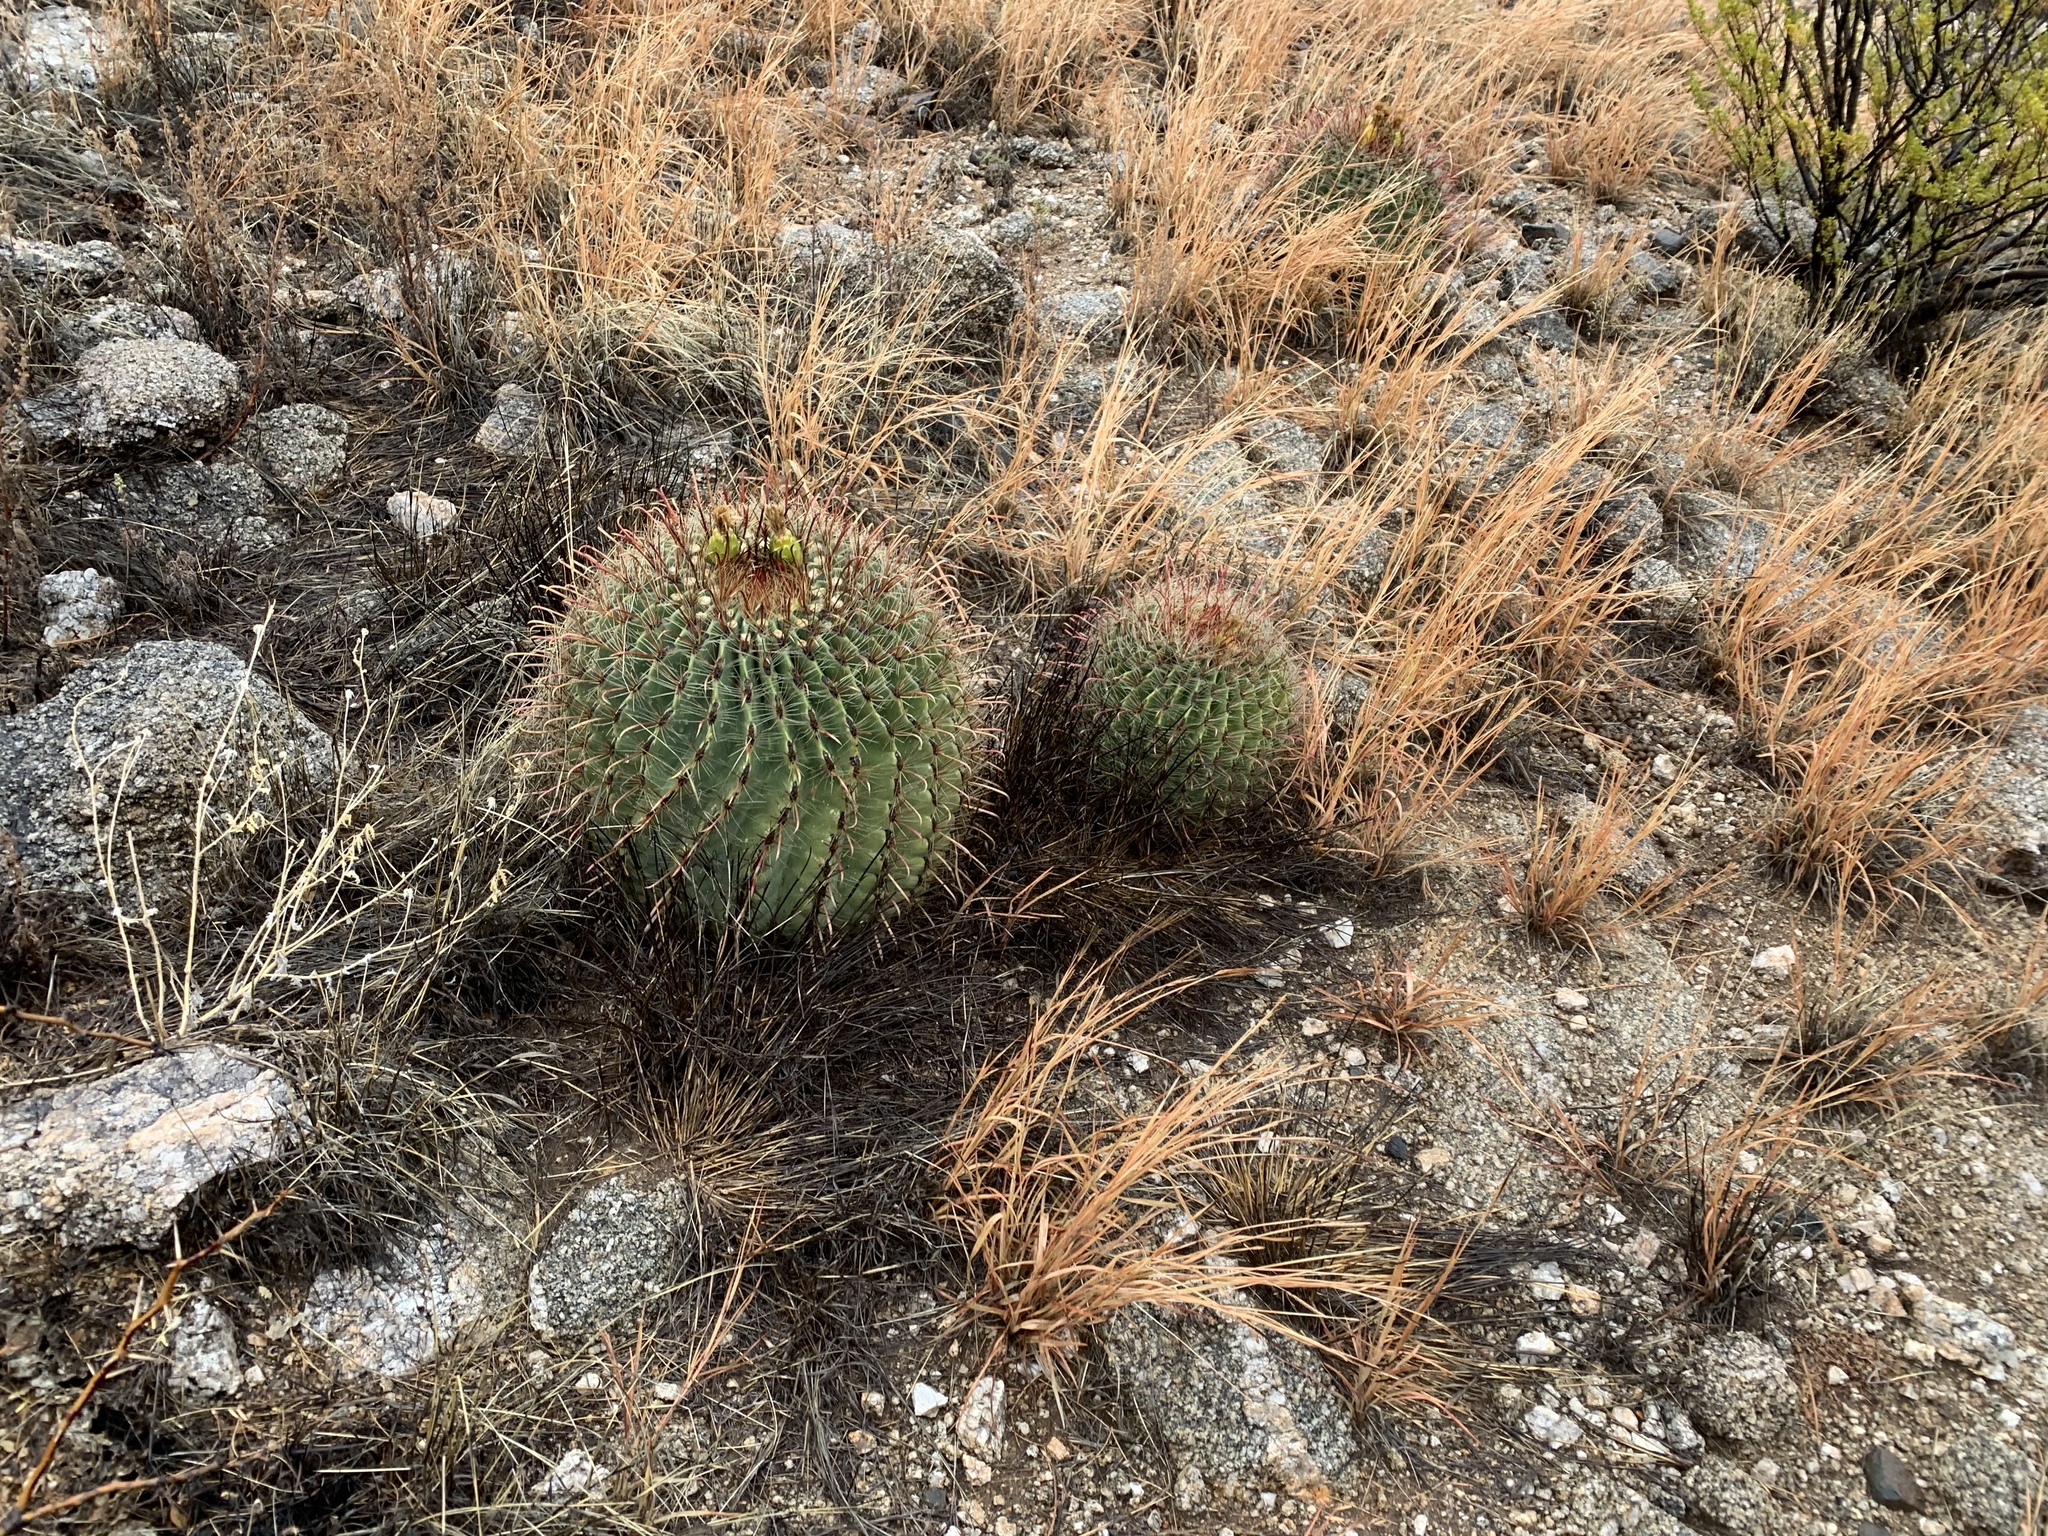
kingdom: Plantae
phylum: Tracheophyta
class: Magnoliopsida
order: Caryophyllales
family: Cactaceae
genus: Ferocactus
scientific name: Ferocactus wislizeni
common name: Candy barrel cactus
